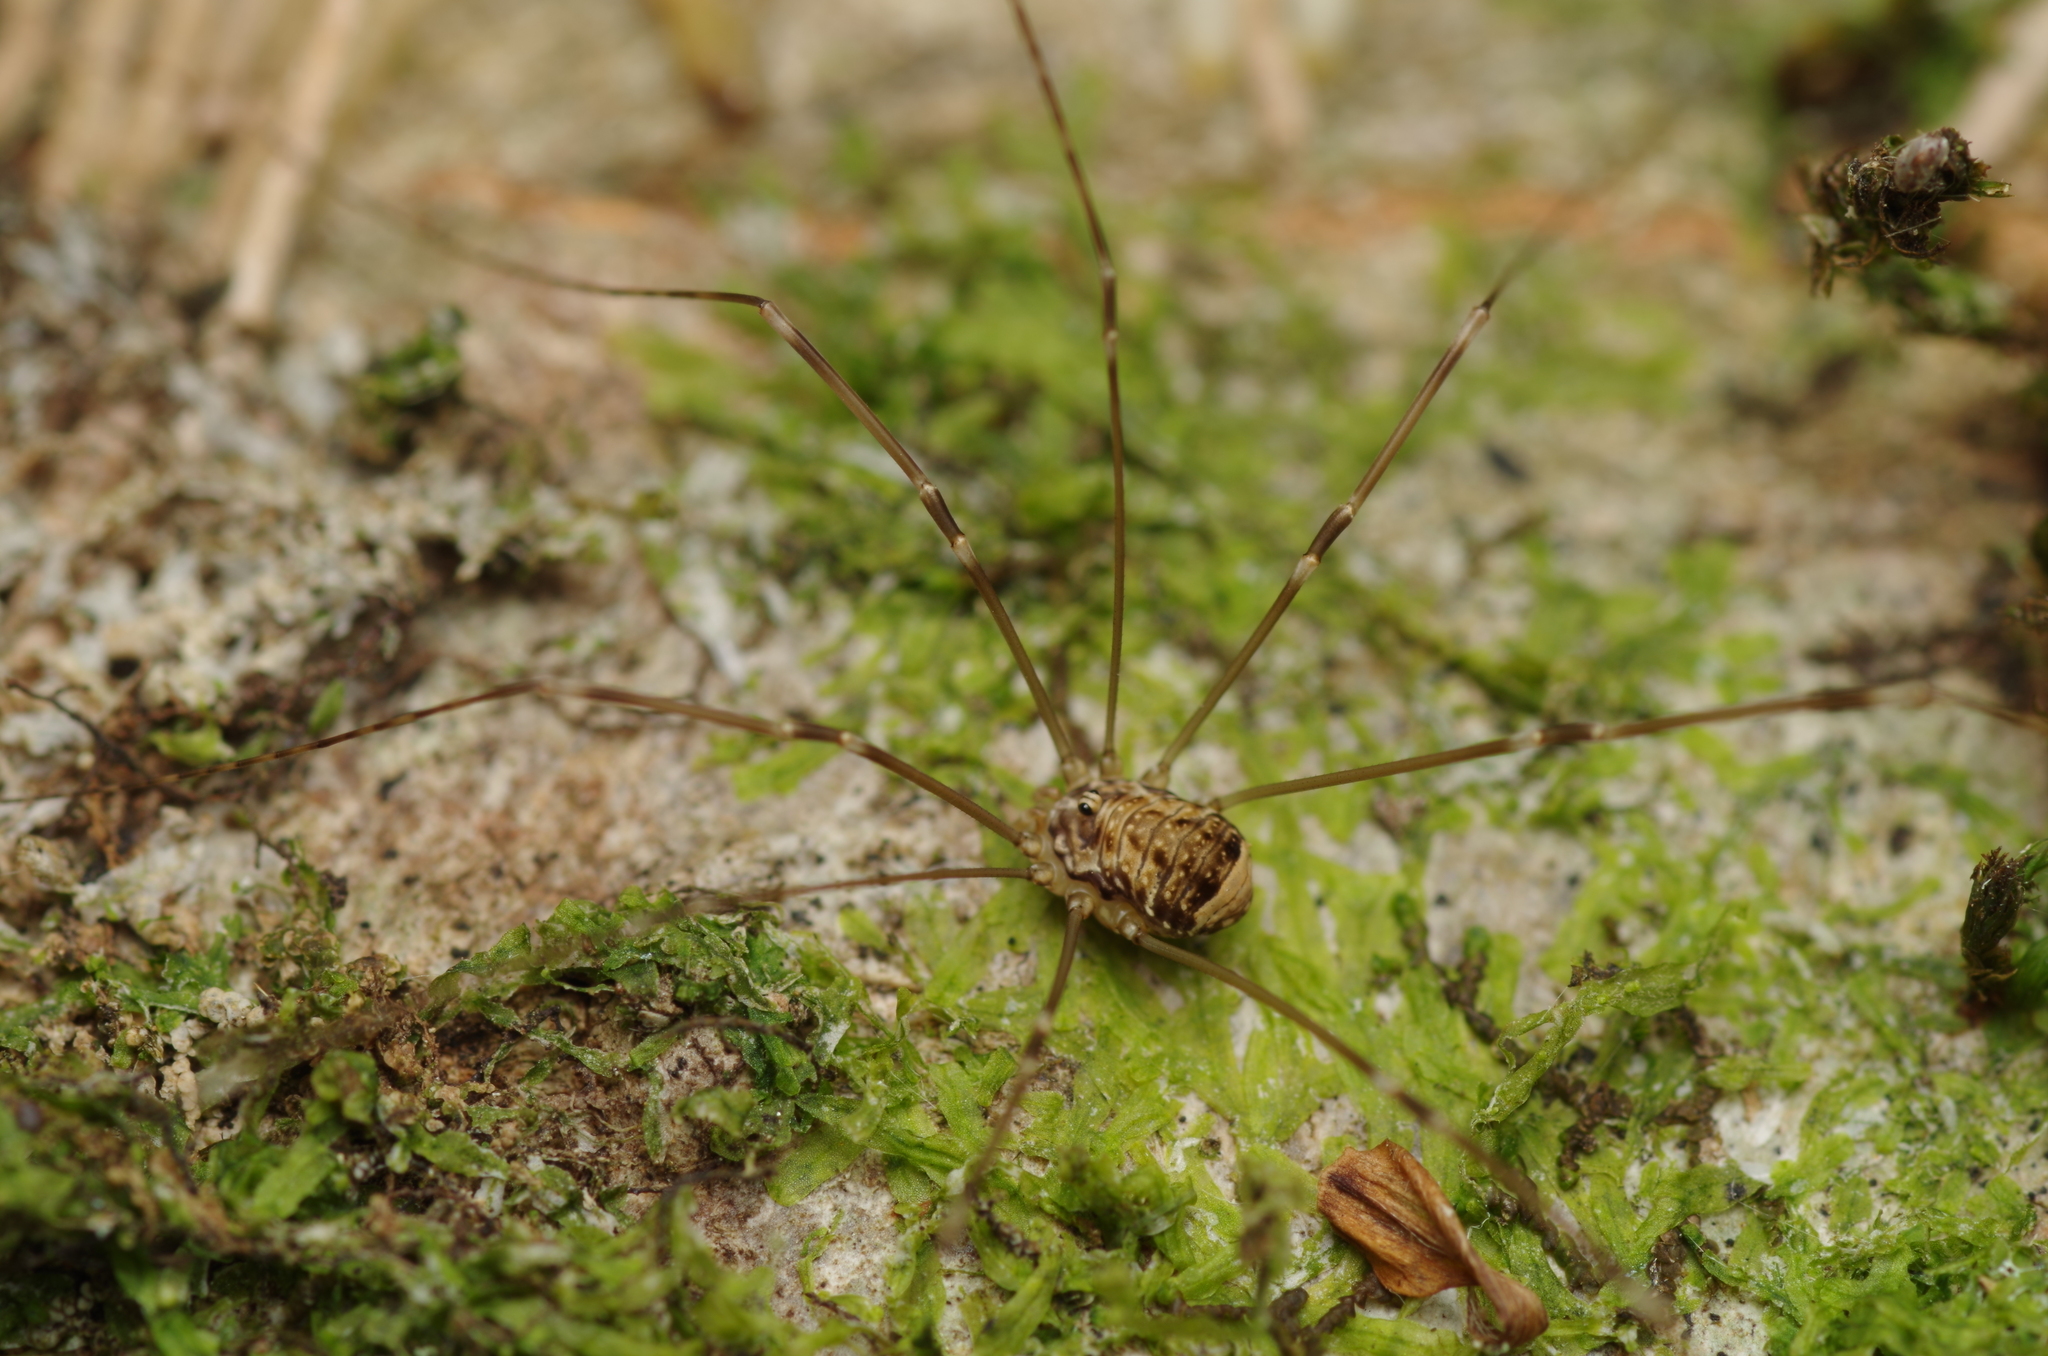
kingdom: Animalia
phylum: Arthropoda
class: Arachnida
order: Opiliones
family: Sclerosomatidae
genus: Leiobunum
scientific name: Leiobunum blackwalli
